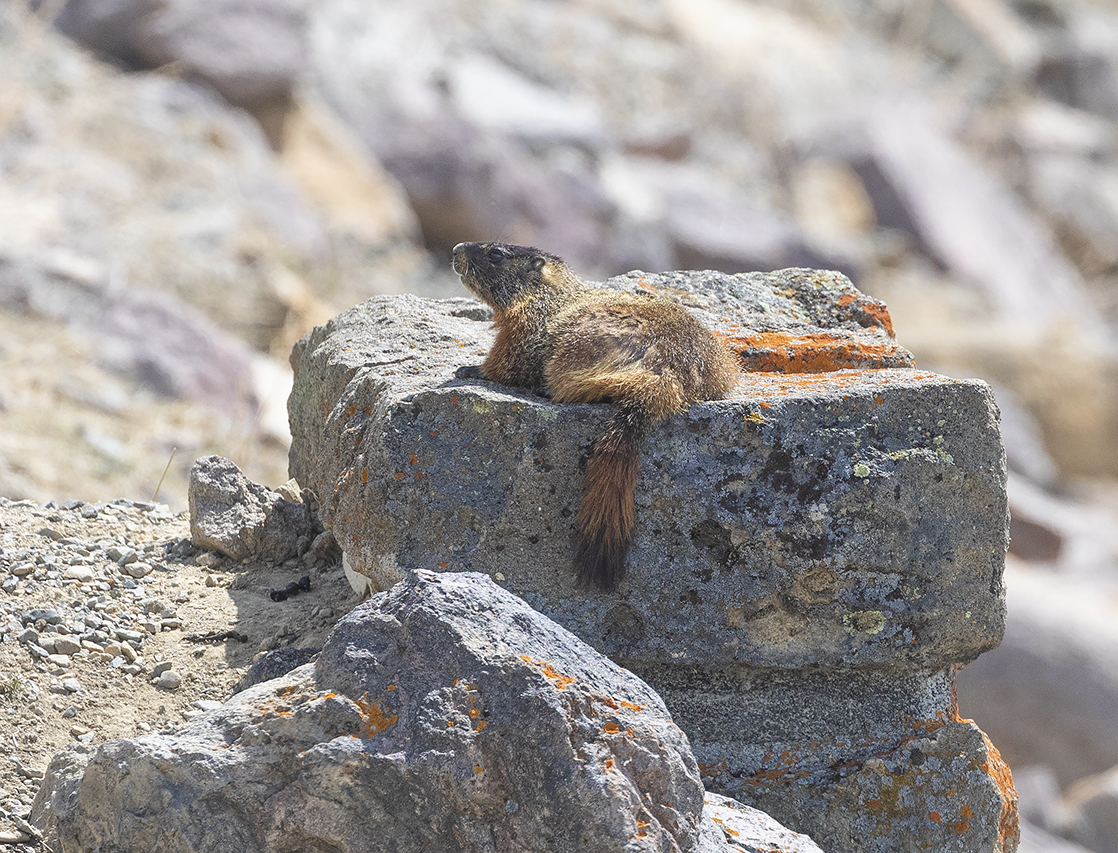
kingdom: Animalia
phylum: Chordata
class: Mammalia
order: Rodentia
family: Sciuridae
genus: Marmota
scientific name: Marmota flaviventris
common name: Yellow-bellied marmot
